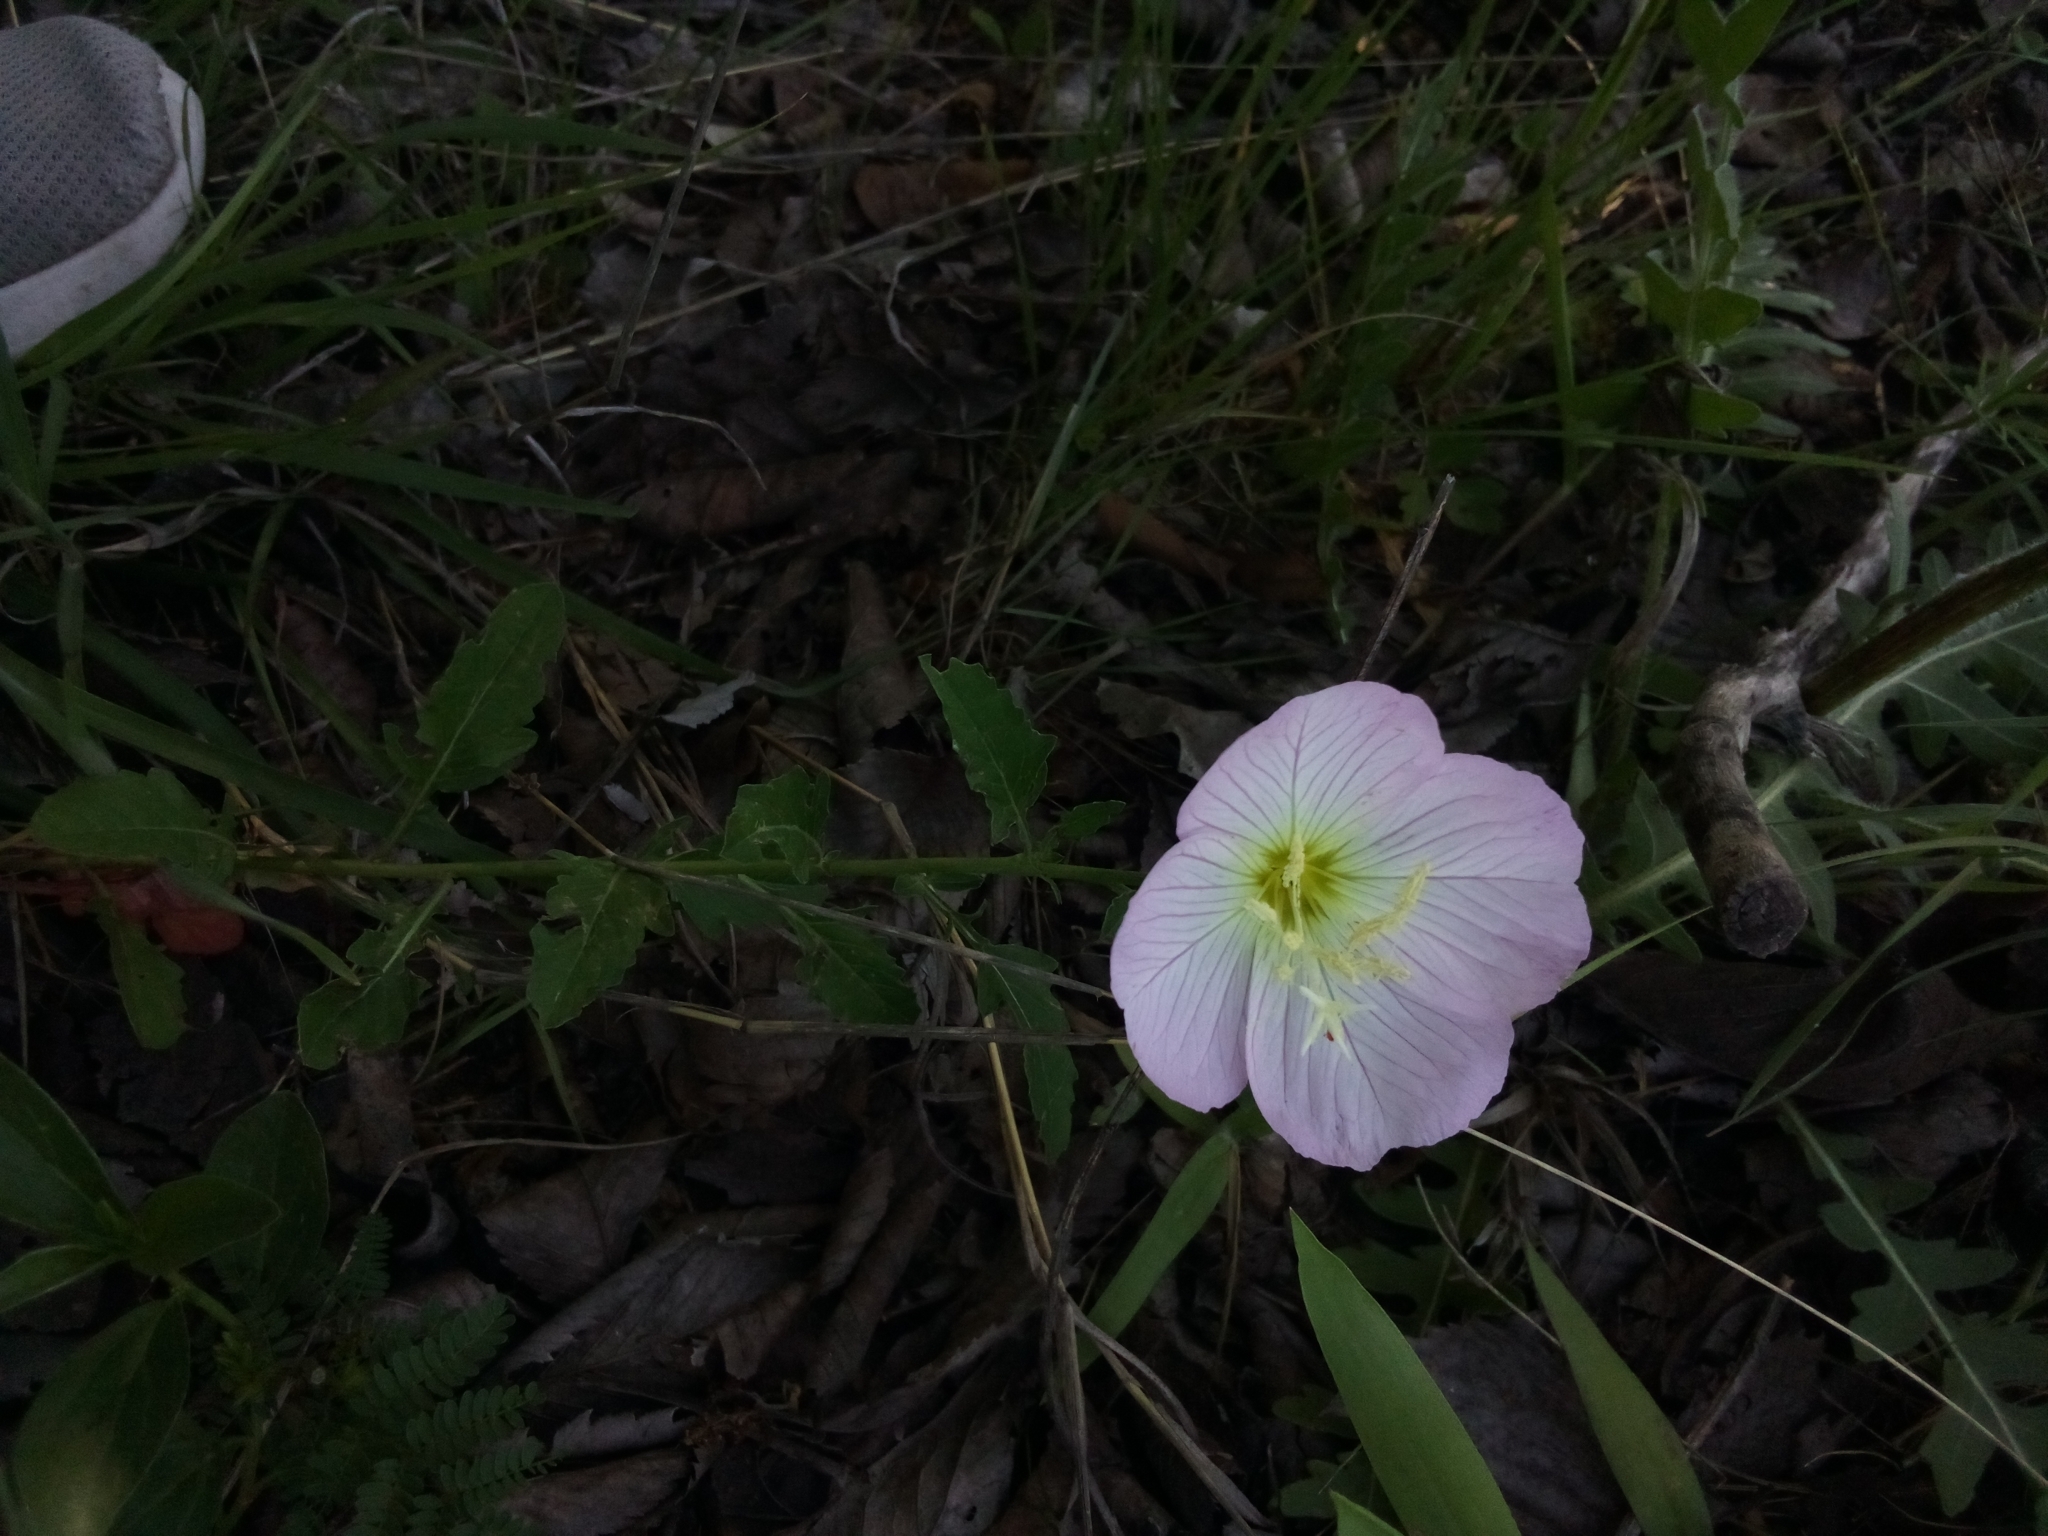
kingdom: Plantae
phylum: Tracheophyta
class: Magnoliopsida
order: Myrtales
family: Onagraceae
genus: Oenothera
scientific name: Oenothera speciosa
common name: White evening-primrose
